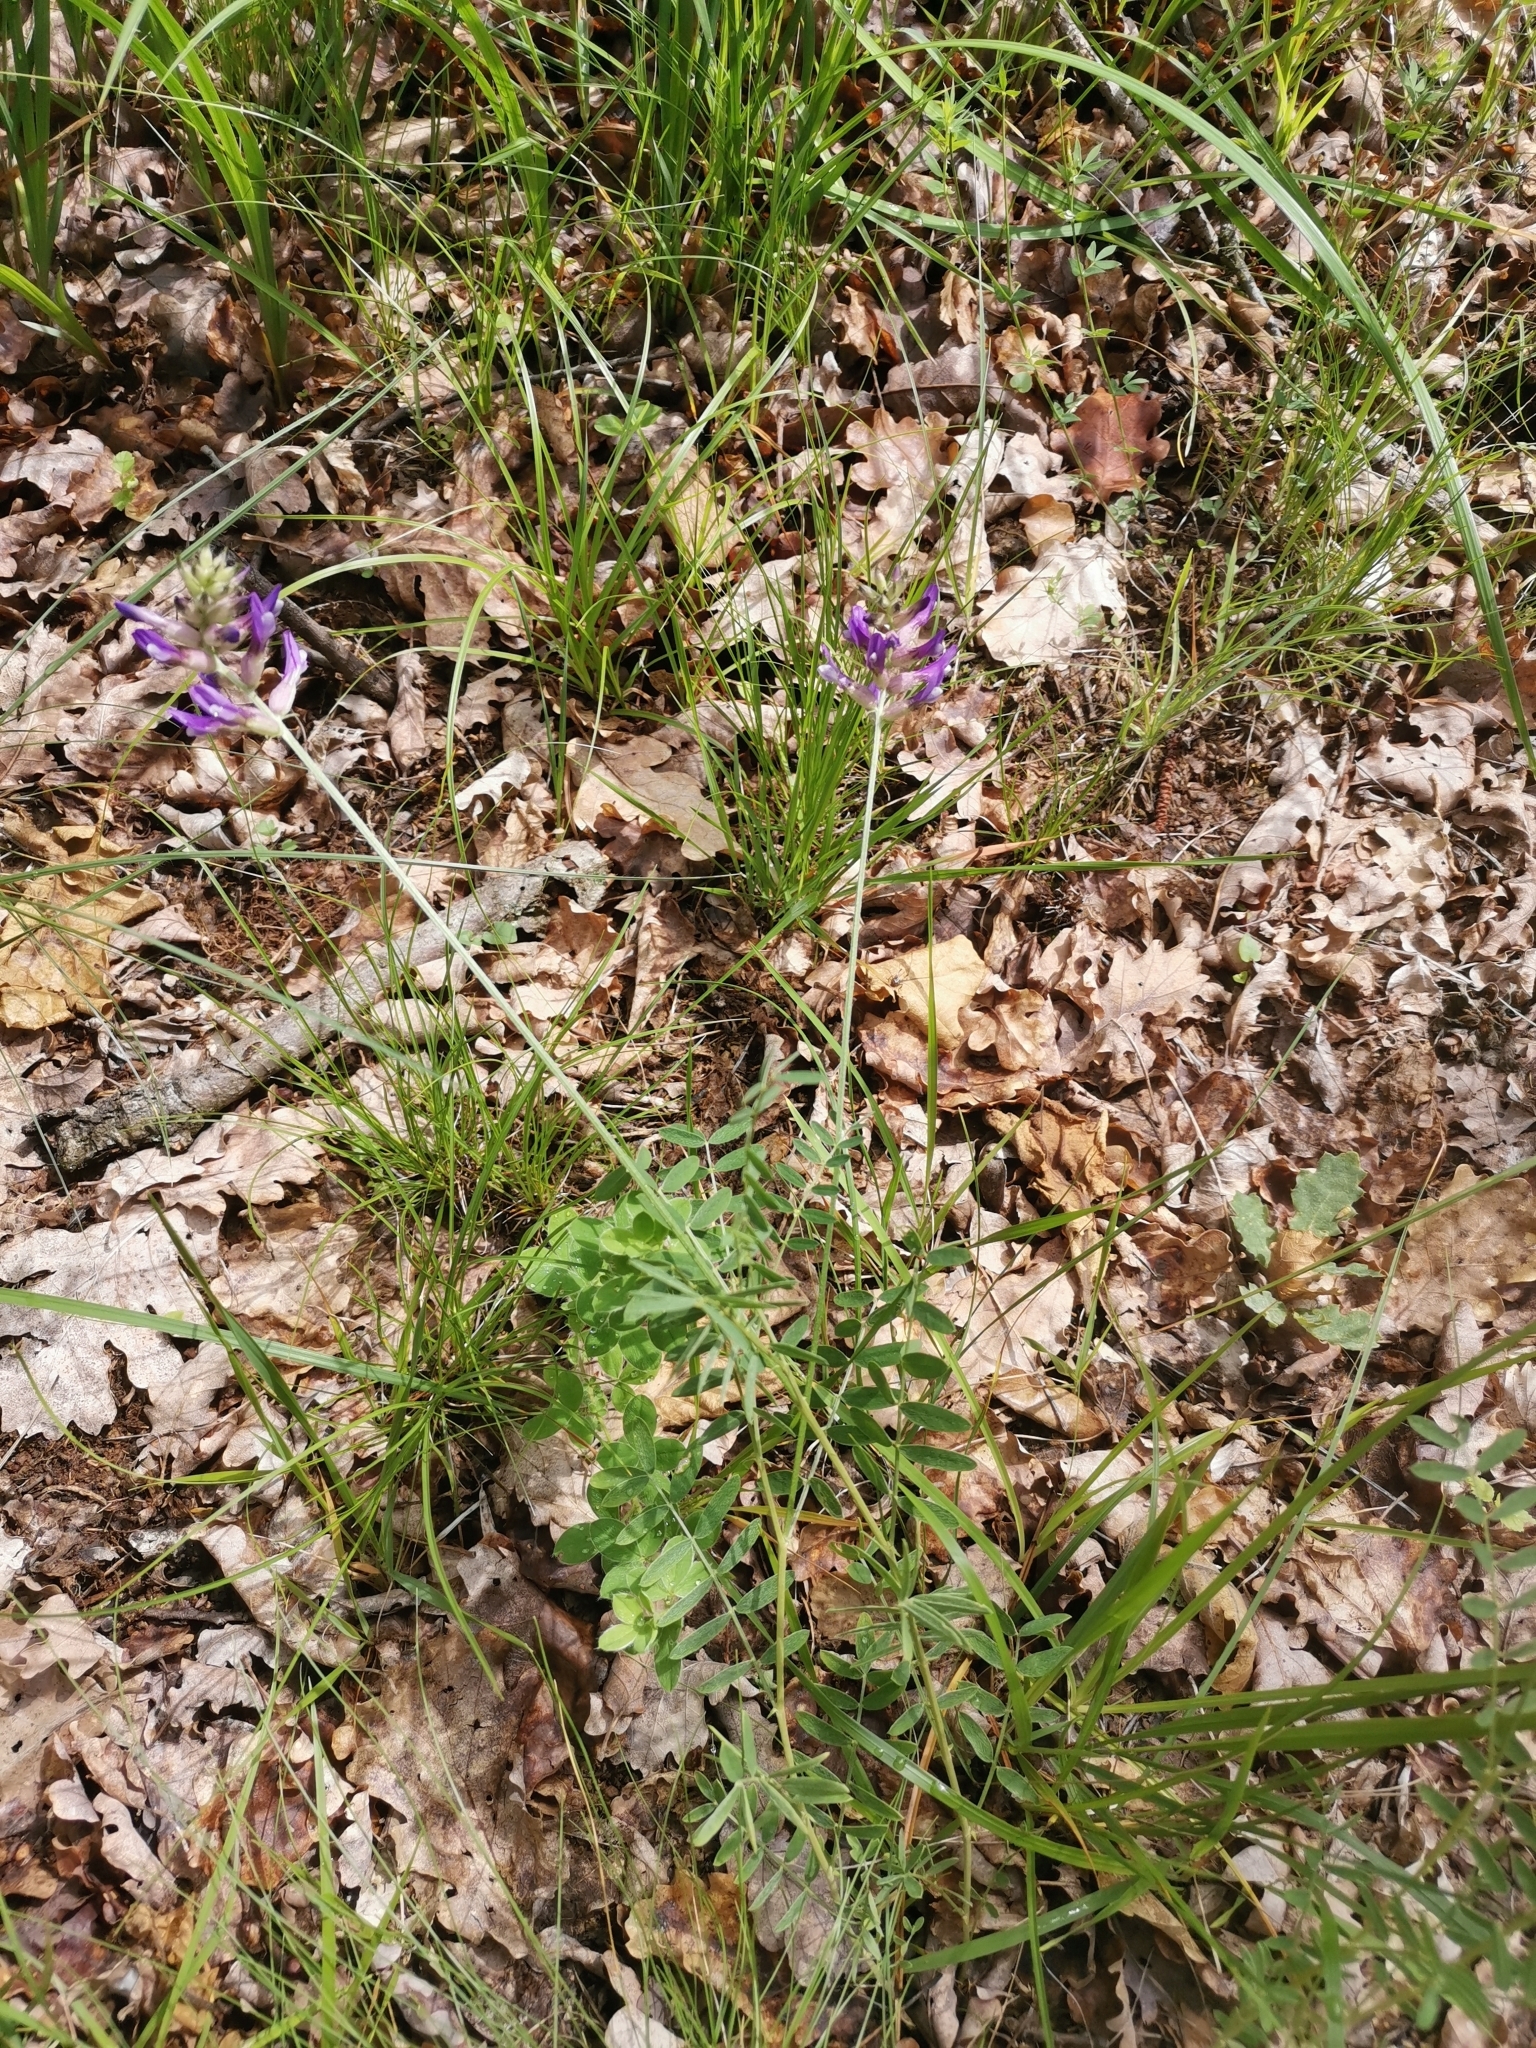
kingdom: Plantae
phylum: Tracheophyta
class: Magnoliopsida
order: Fabales
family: Fabaceae
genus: Astragalus
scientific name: Astragalus vesicarius
